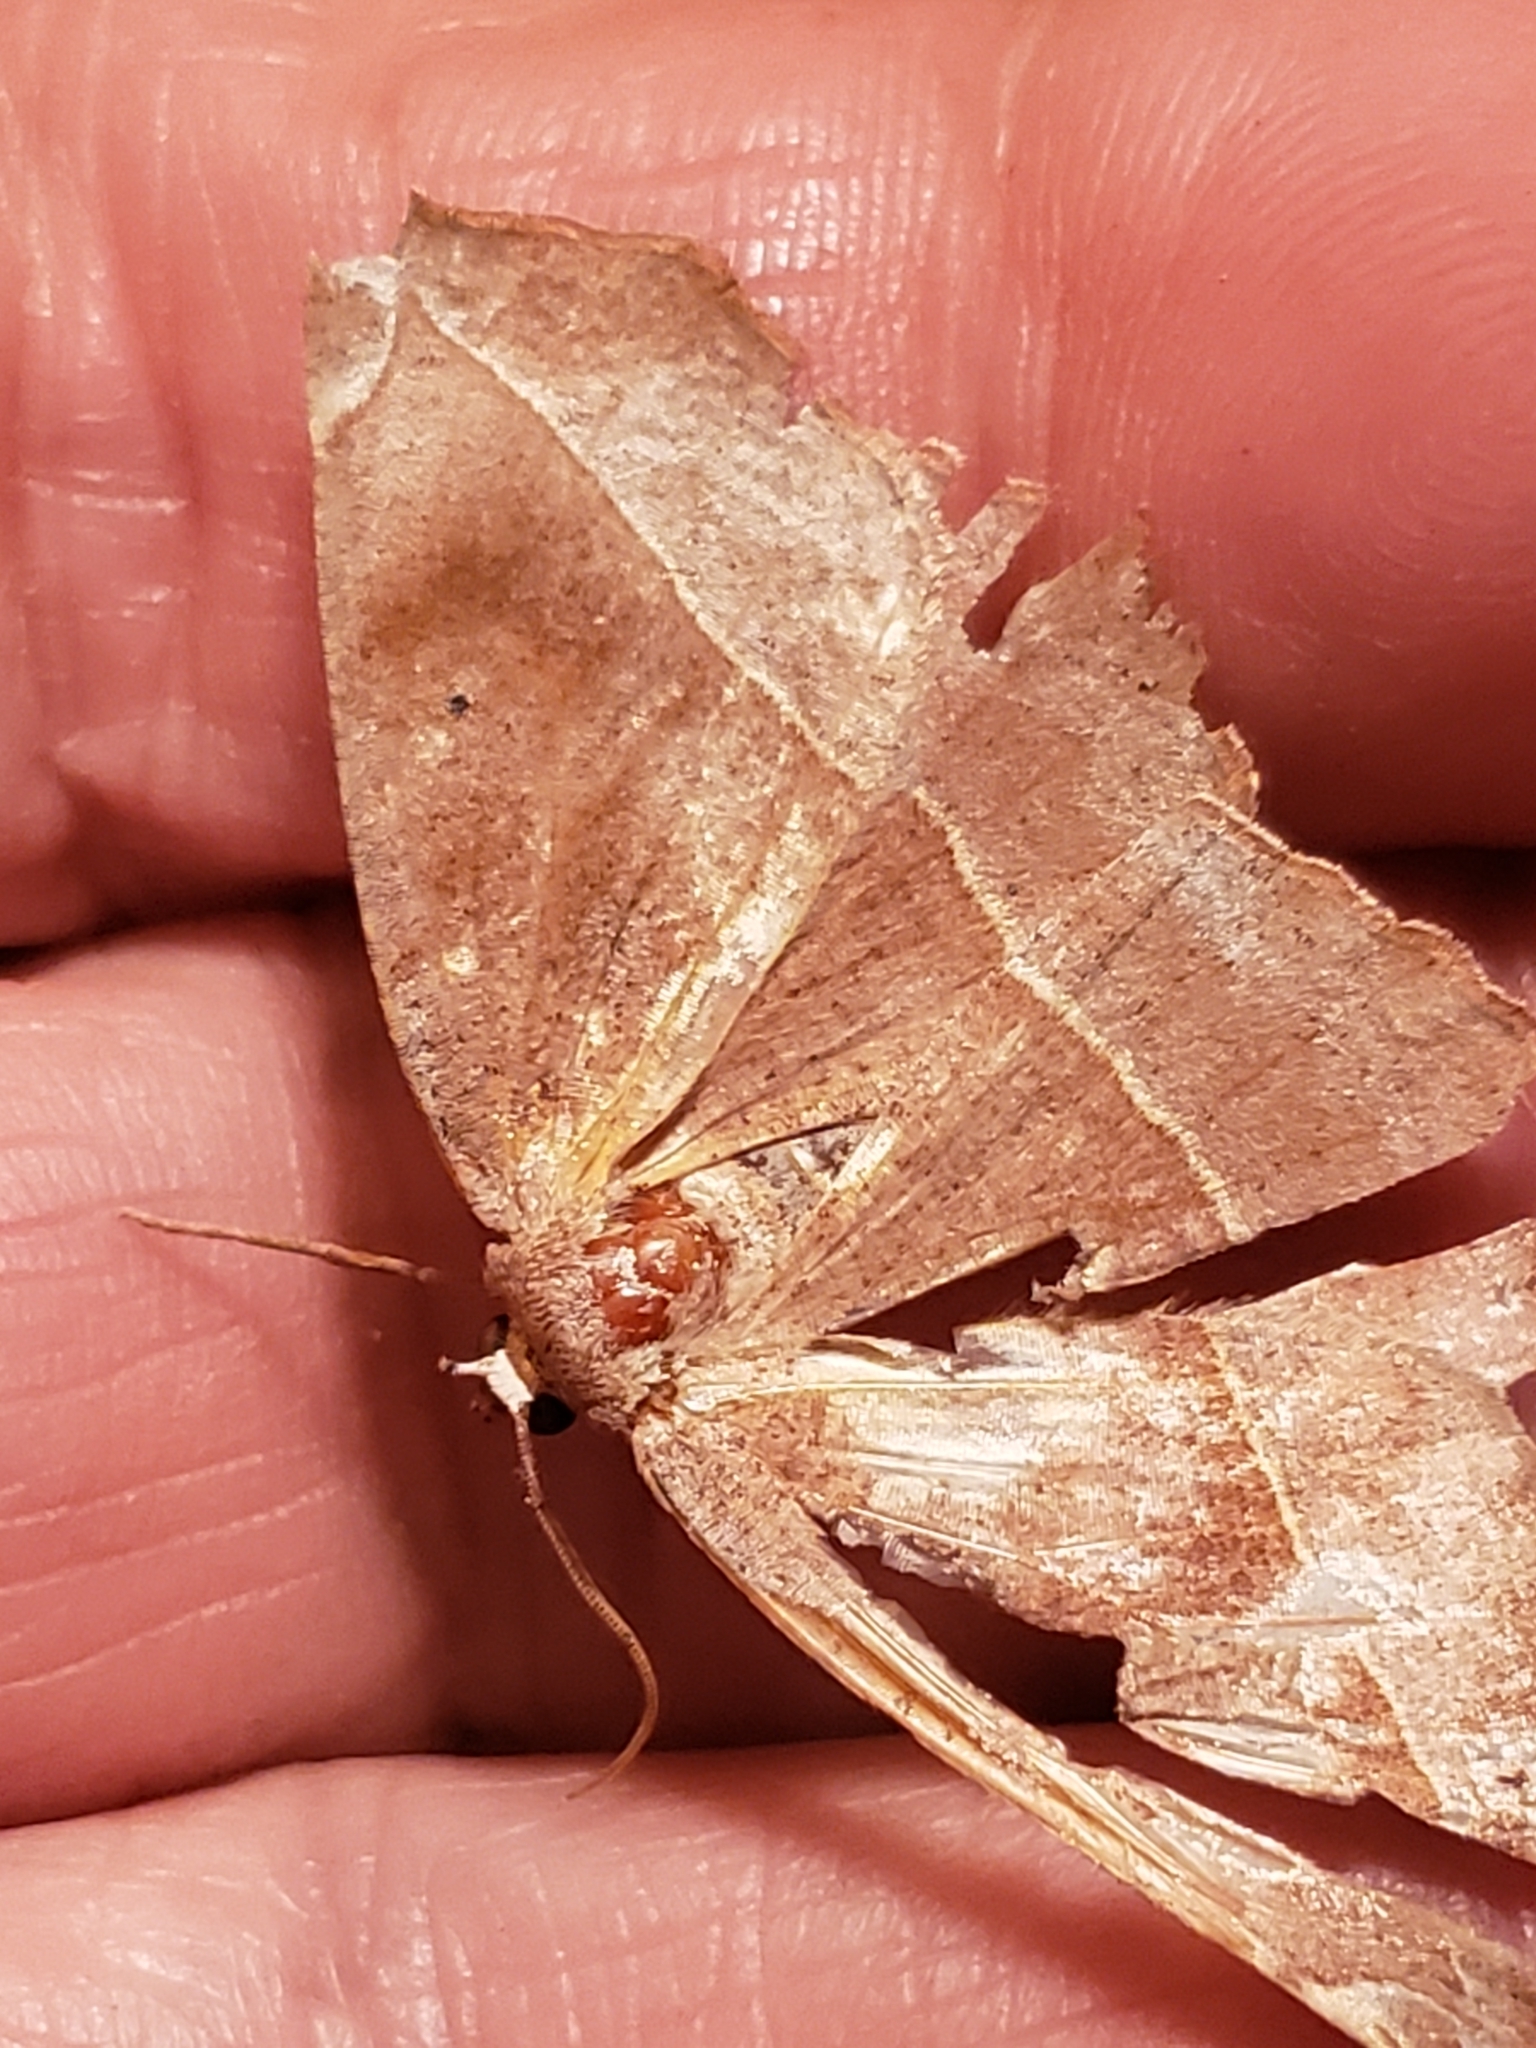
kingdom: Animalia
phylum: Arthropoda
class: Insecta
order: Lepidoptera
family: Geometridae
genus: Eutrapela
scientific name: Eutrapela clemataria
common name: Curved-toothed geometer
